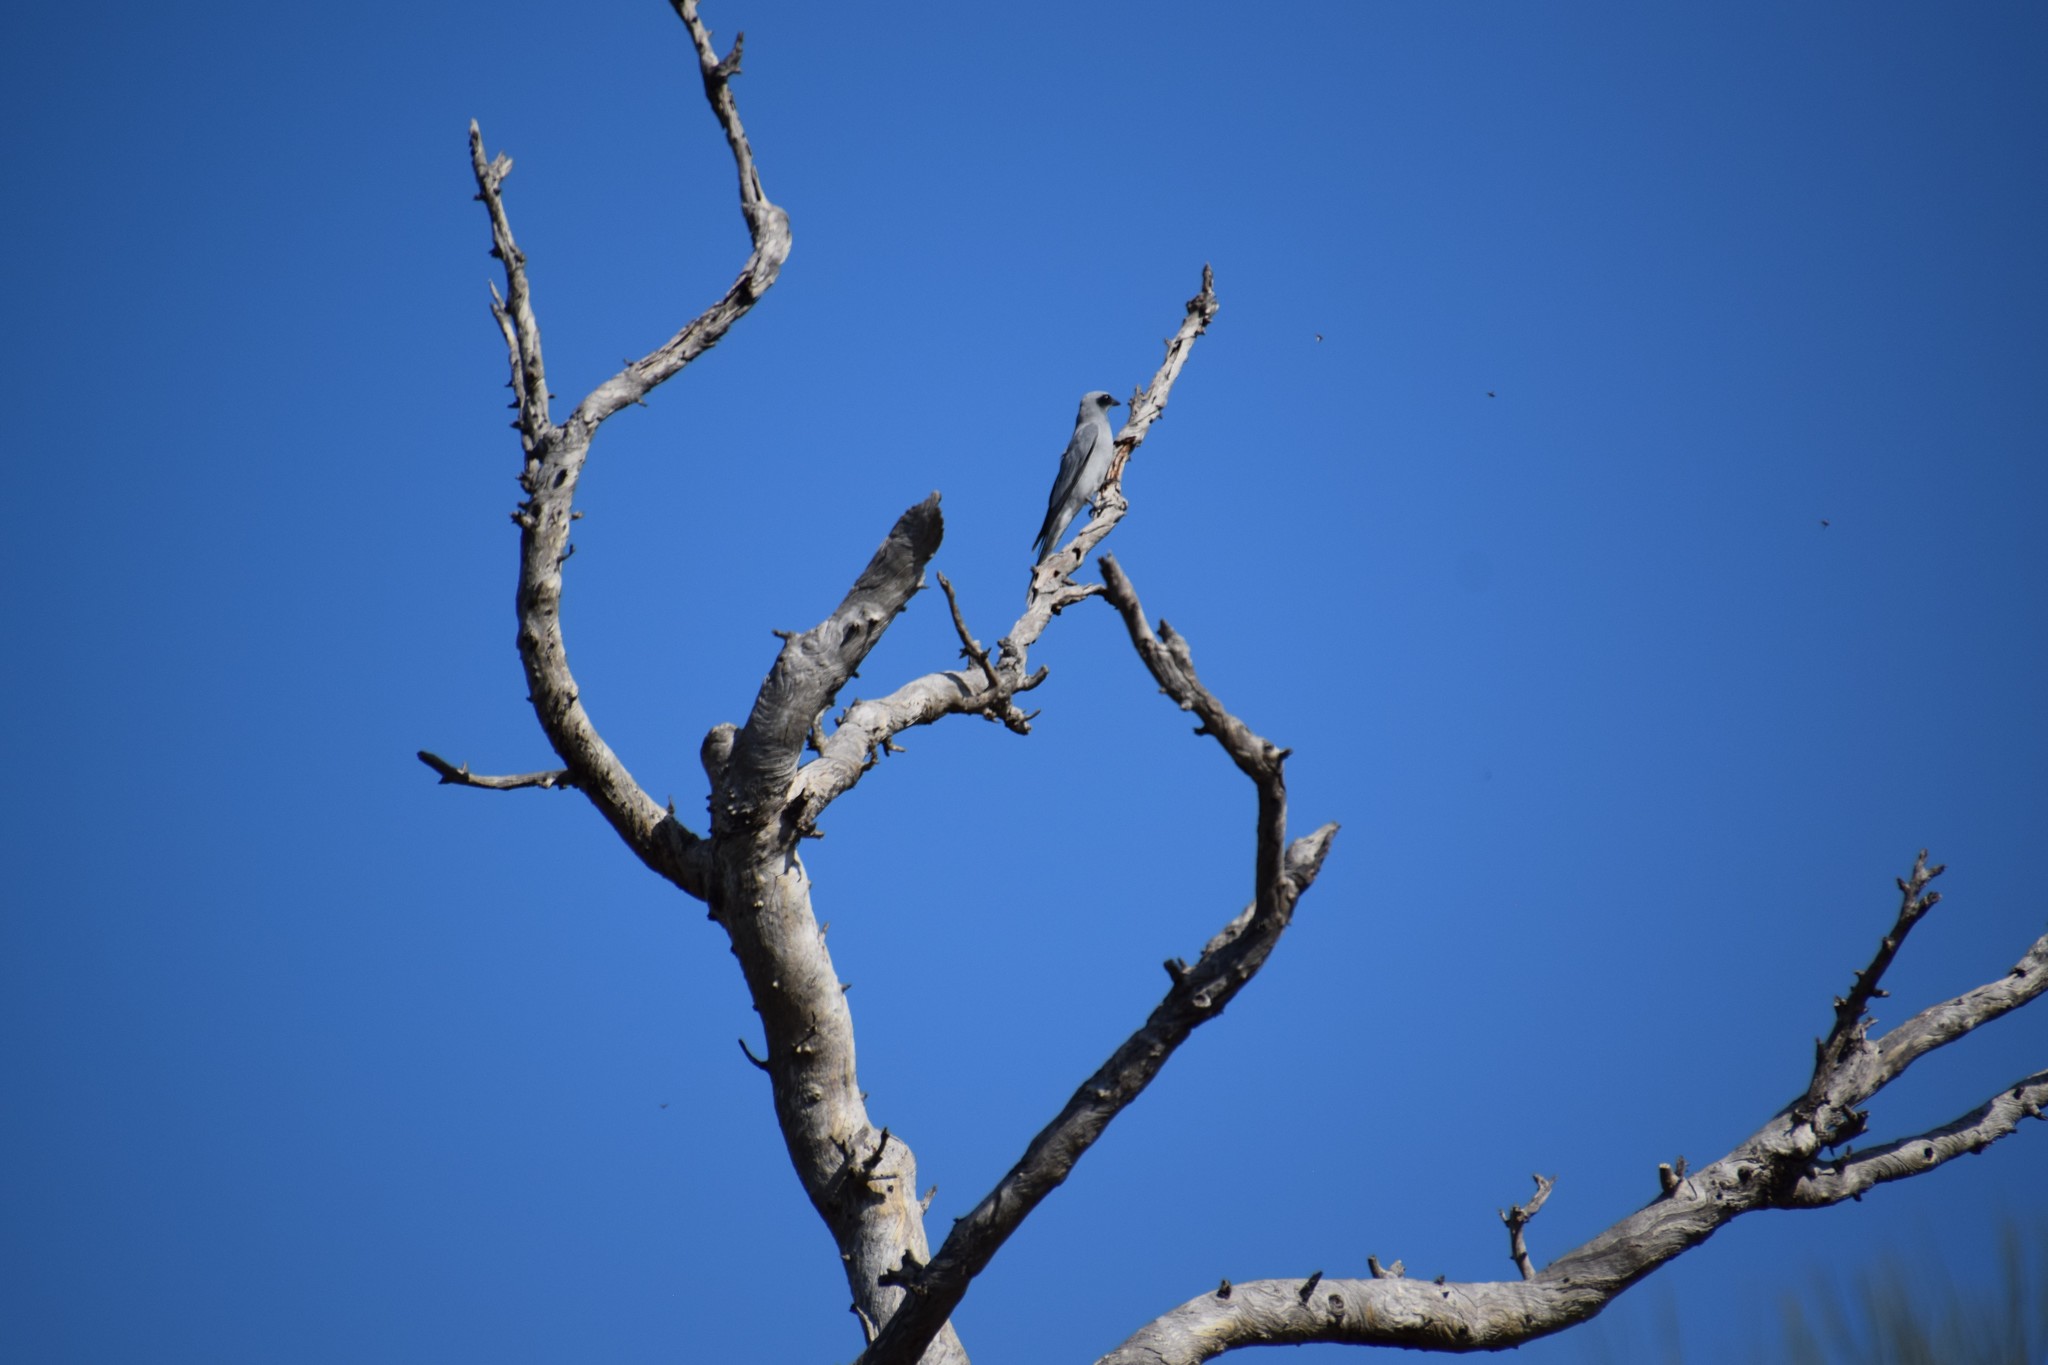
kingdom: Animalia
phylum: Chordata
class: Aves
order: Passeriformes
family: Campephagidae
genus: Coracina
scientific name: Coracina novaehollandiae
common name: Black-faced cuckooshrike
